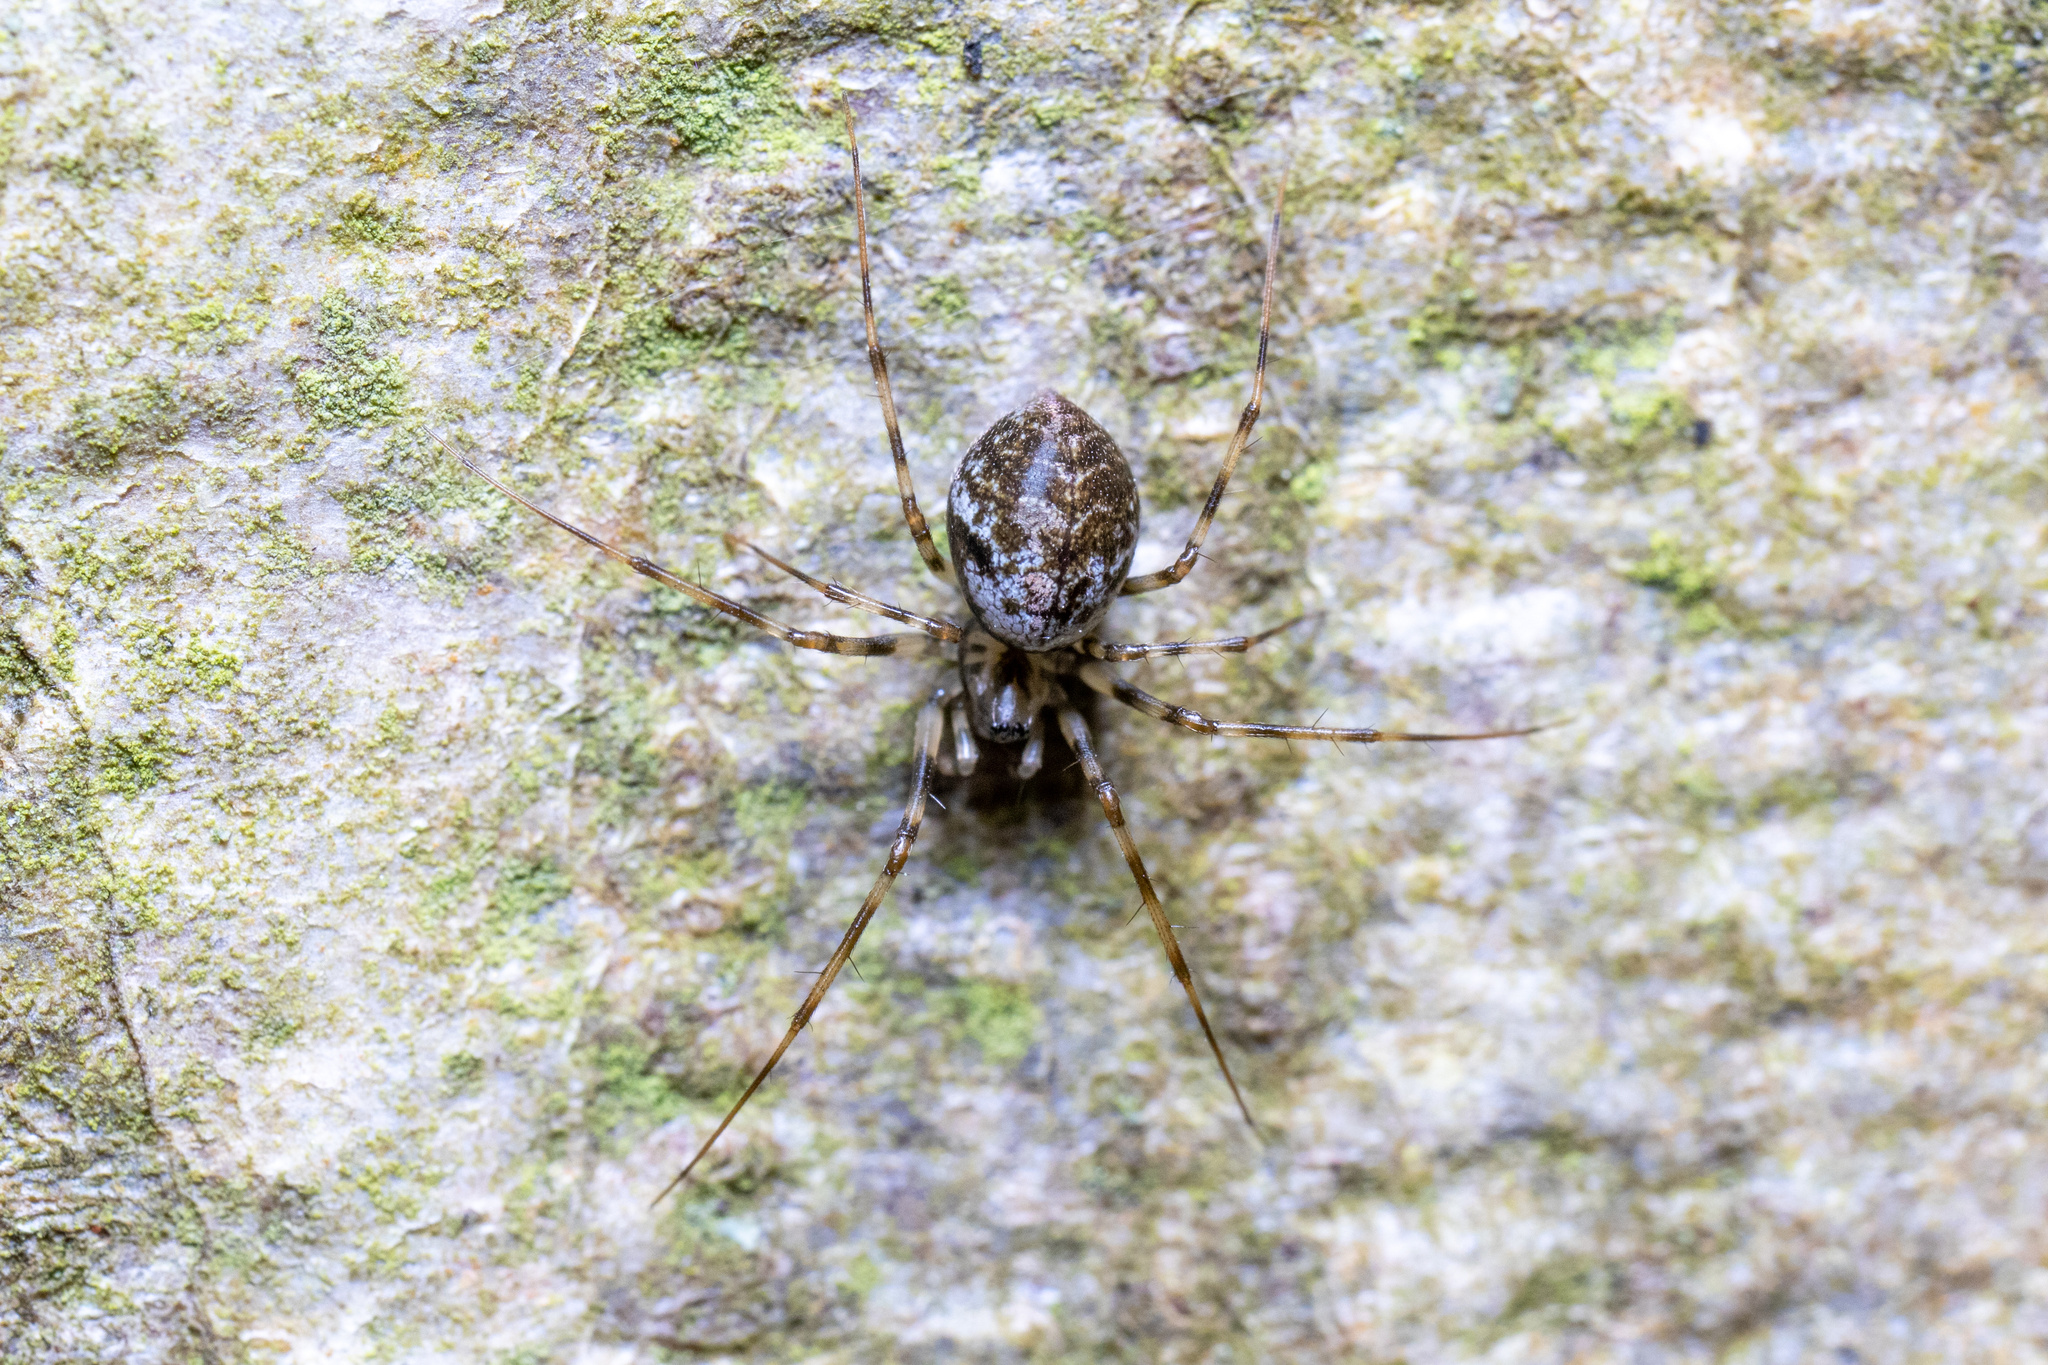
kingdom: Animalia
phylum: Arthropoda
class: Arachnida
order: Araneae
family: Linyphiidae
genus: Drapetisca
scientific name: Drapetisca socialis
